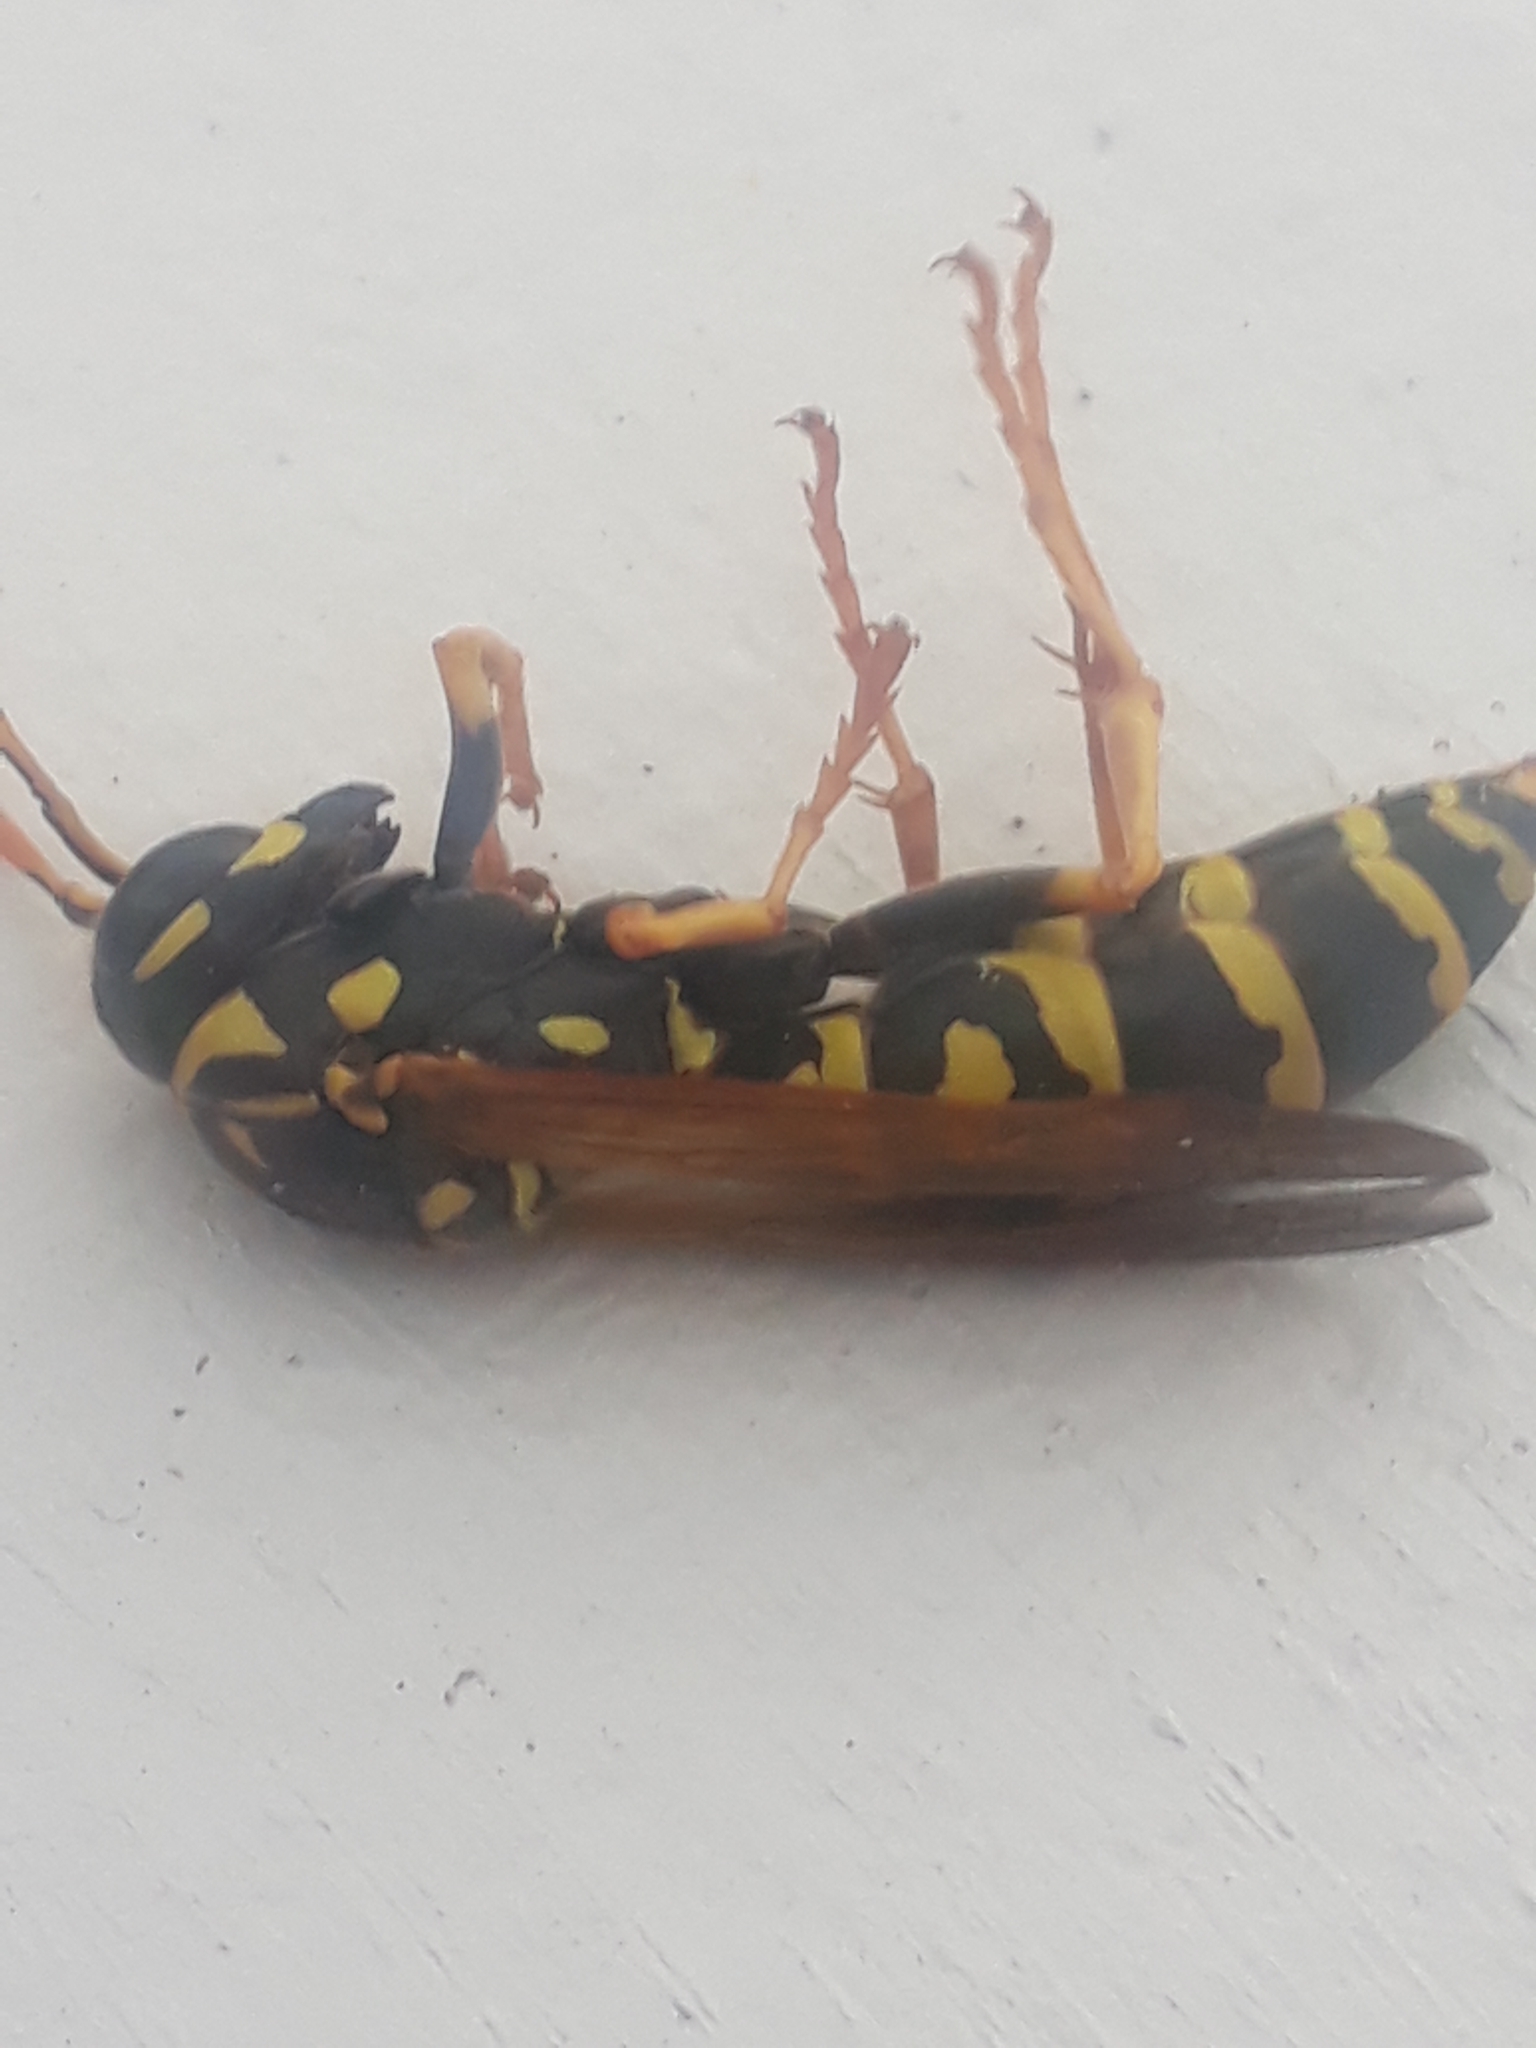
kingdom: Animalia
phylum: Arthropoda
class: Insecta
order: Hymenoptera
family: Eumenidae
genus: Polistes
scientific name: Polistes dominula
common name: Paper wasp
